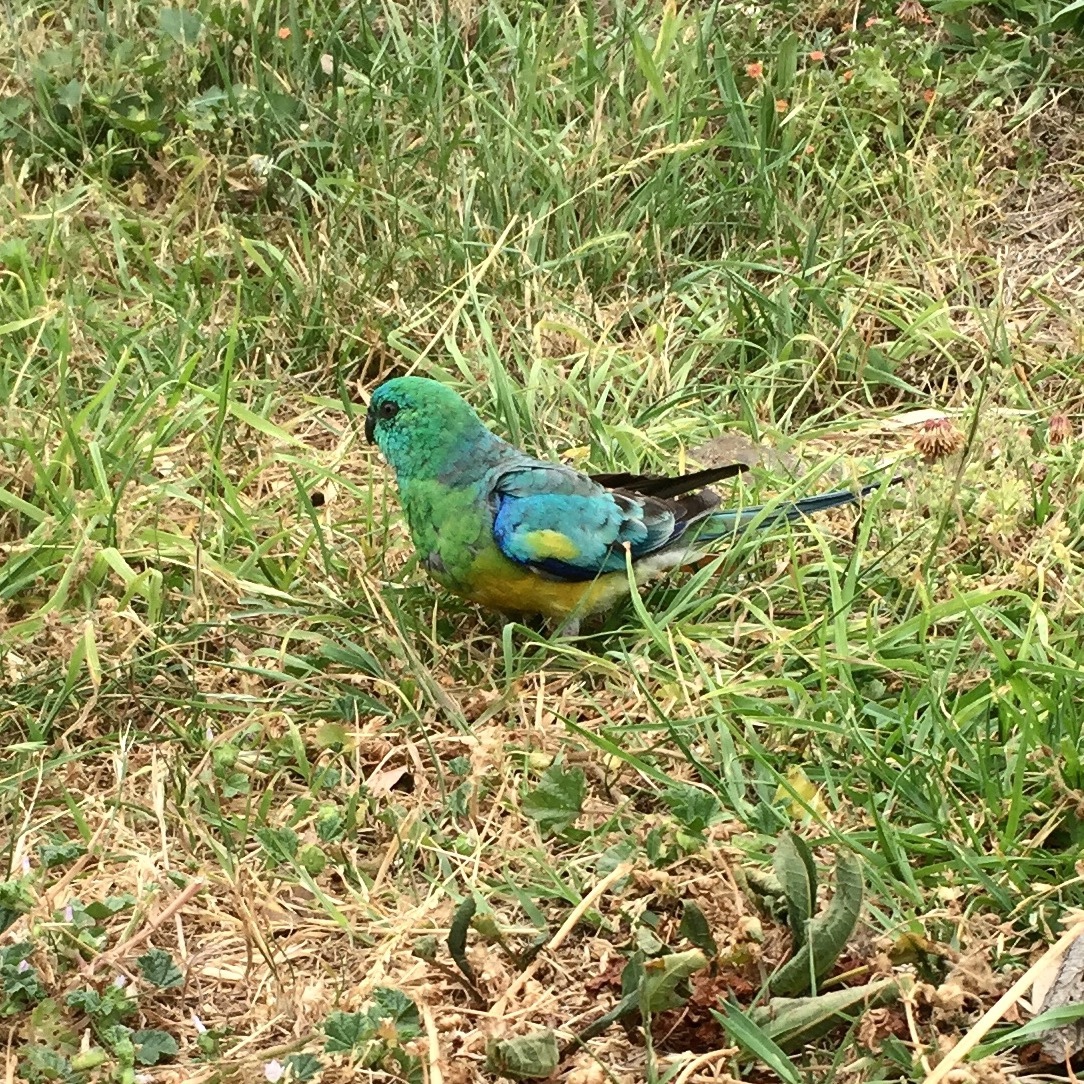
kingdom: Animalia
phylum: Chordata
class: Aves
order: Psittaciformes
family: Psittacidae
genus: Psephotus
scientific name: Psephotus haematonotus
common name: Red-rumped parrot
